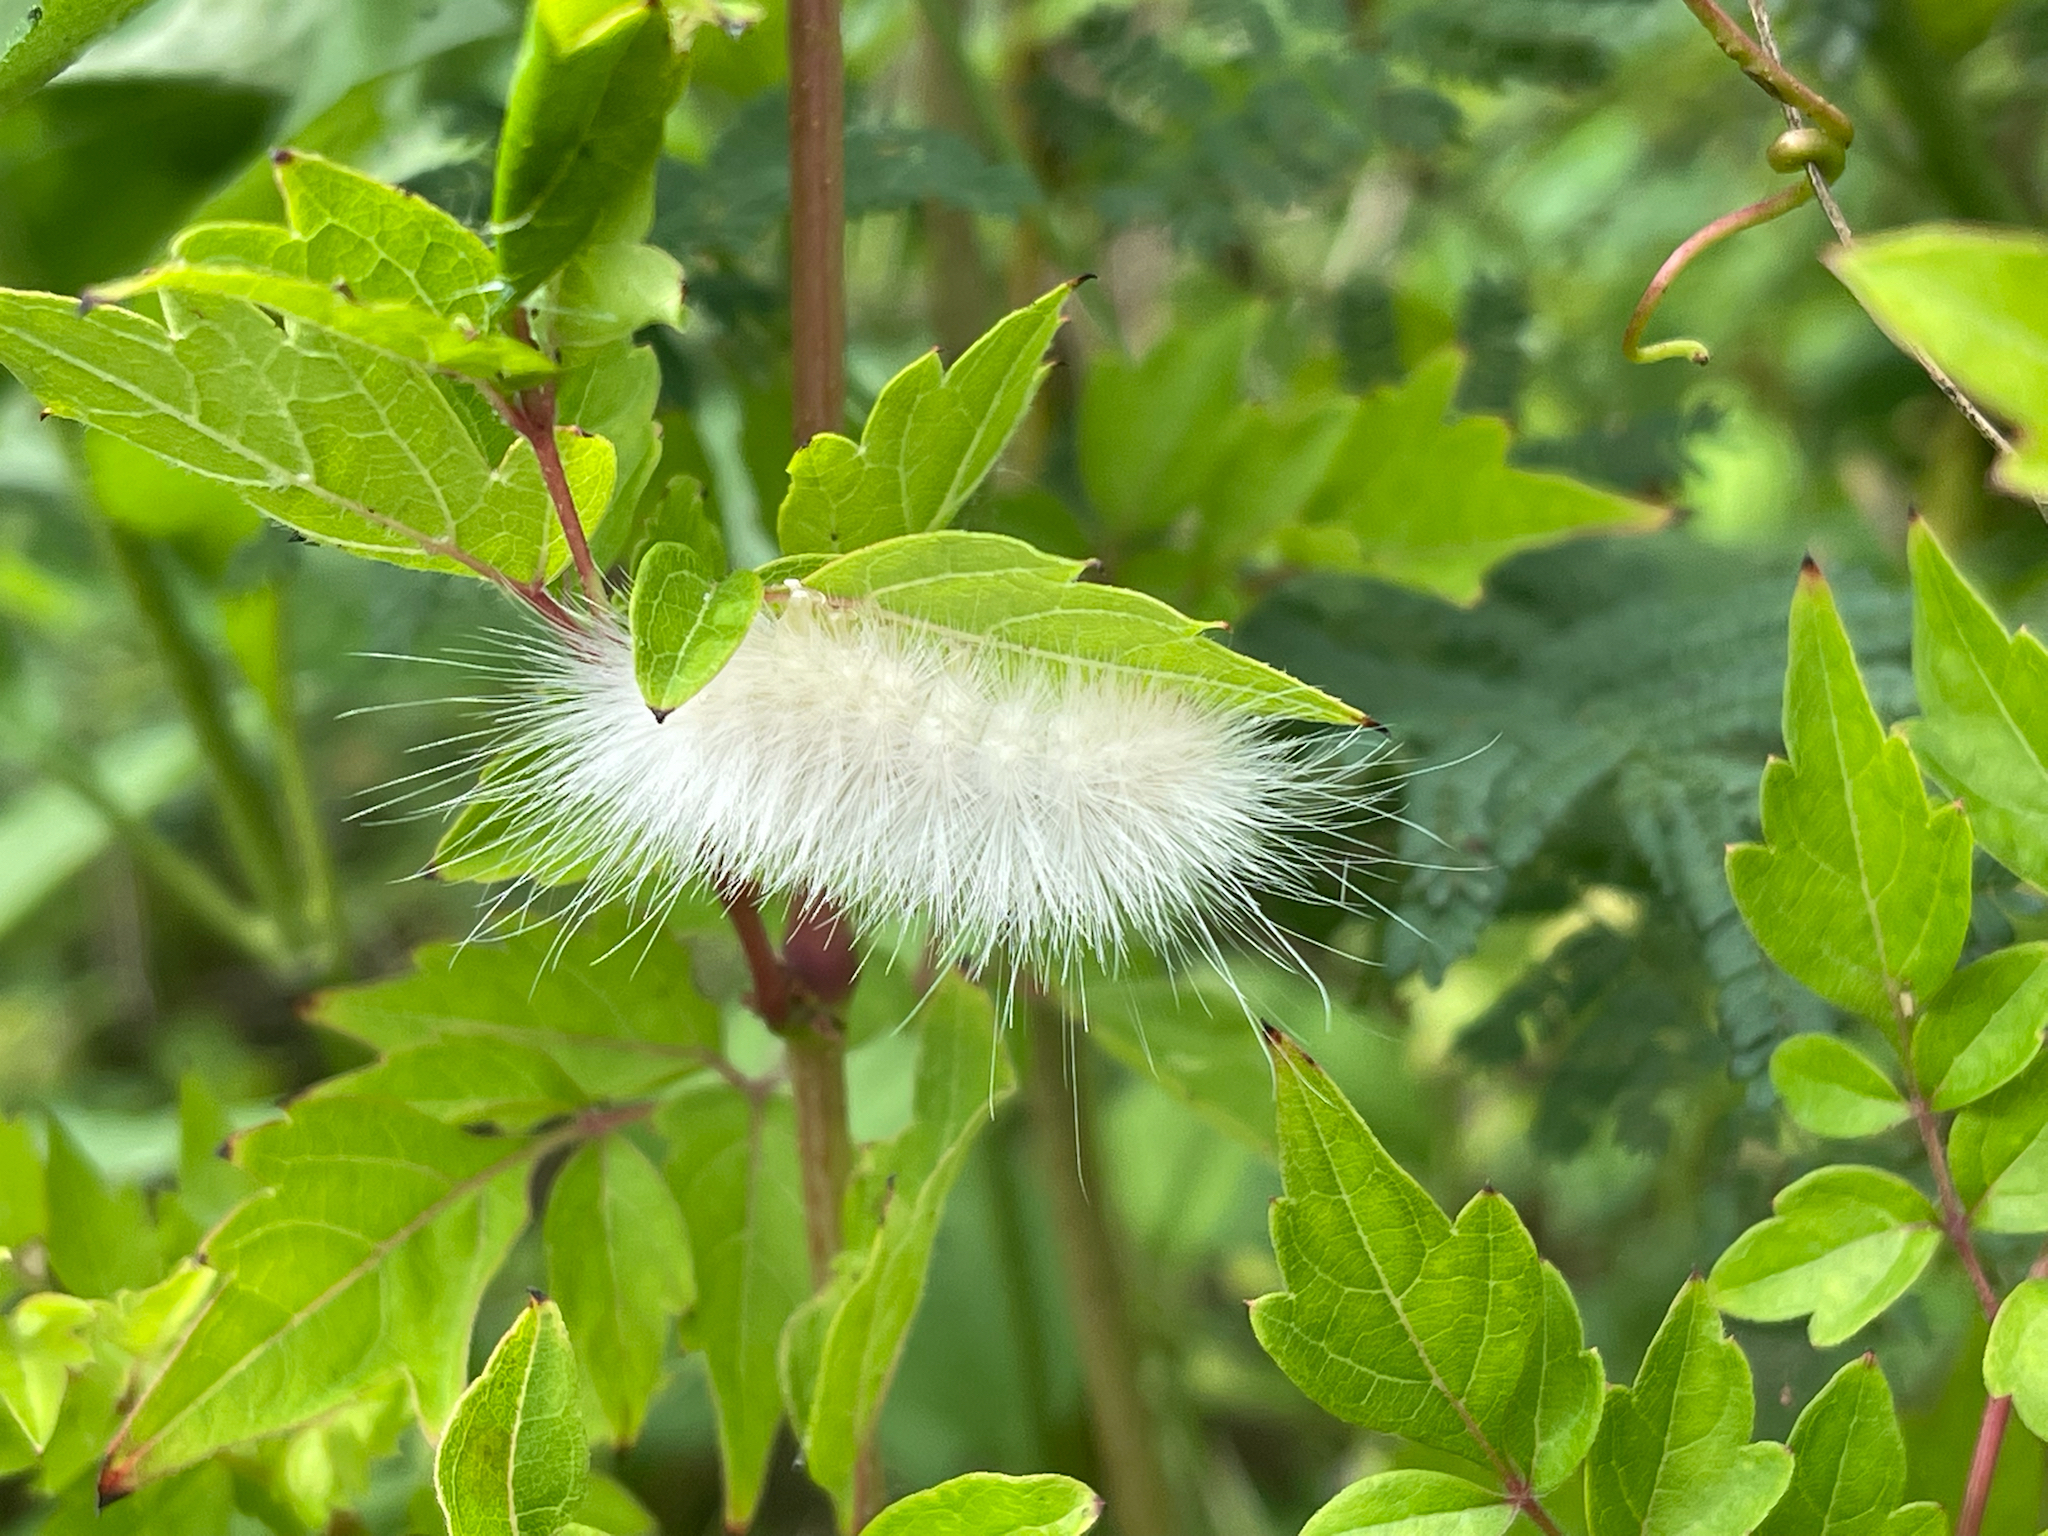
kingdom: Animalia
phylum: Arthropoda
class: Insecta
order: Lepidoptera
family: Erebidae
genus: Spilosoma
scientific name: Spilosoma virginica
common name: Virginia tiger moth
